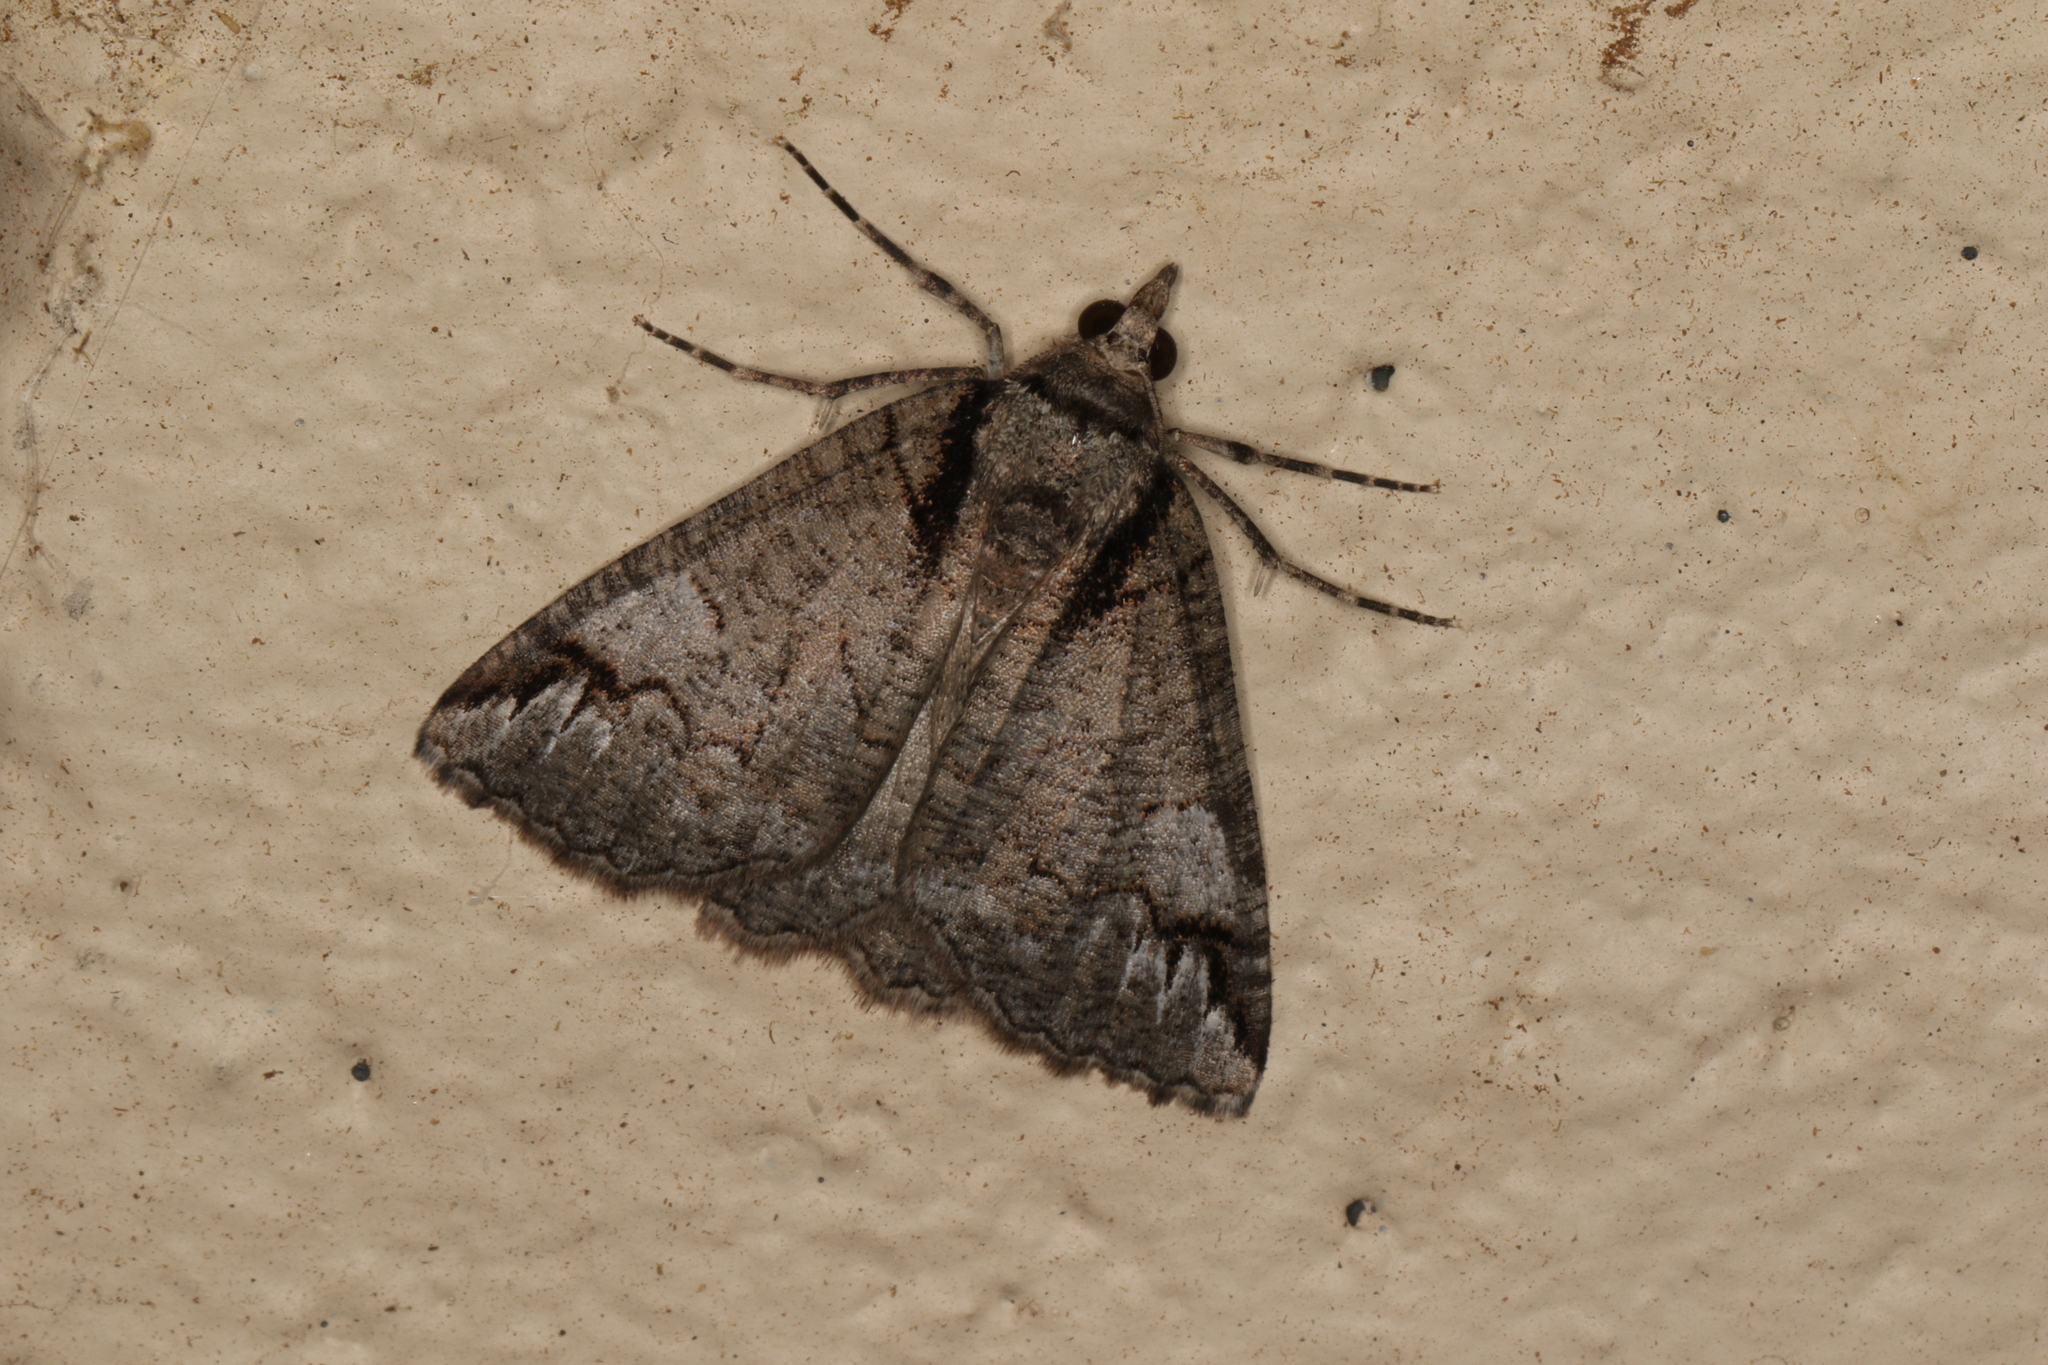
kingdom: Animalia
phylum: Arthropoda
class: Insecta
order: Lepidoptera
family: Geometridae
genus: Austroterpna
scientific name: Austroterpna paratorna
